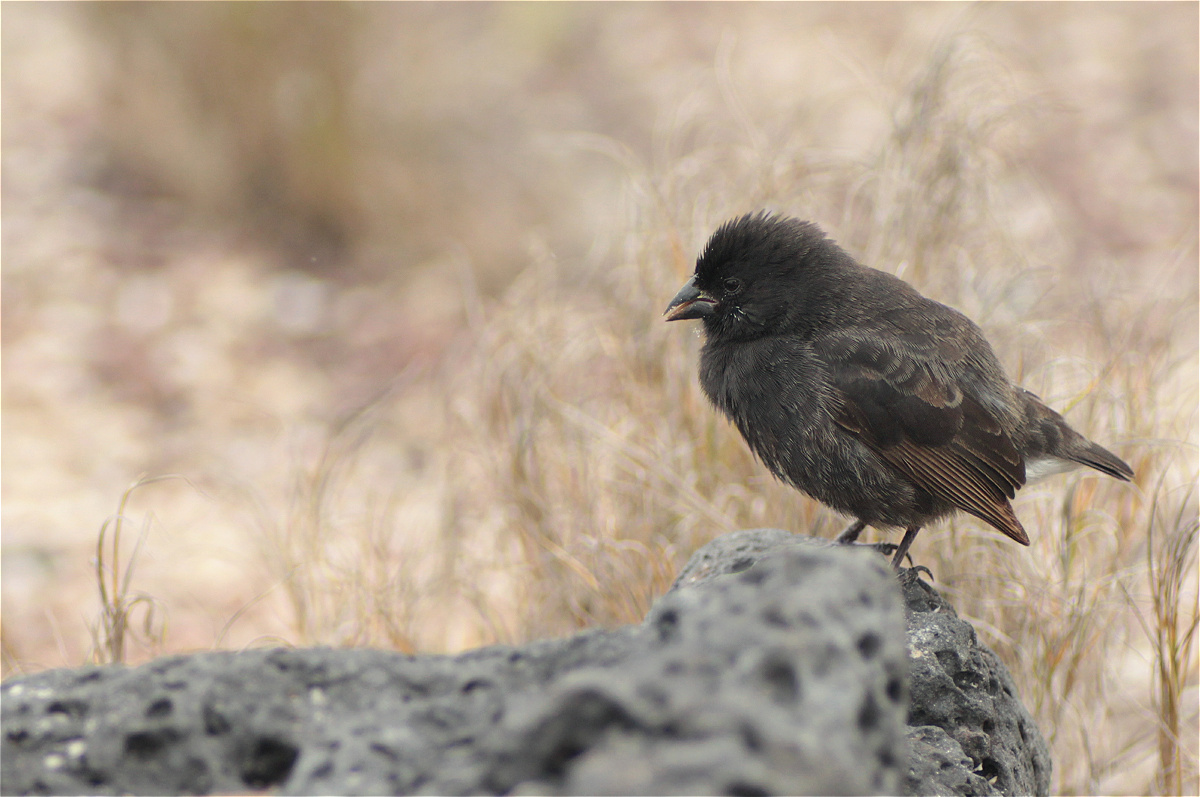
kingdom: Animalia
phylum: Chordata
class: Aves
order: Passeriformes
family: Thraupidae
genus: Geospiza
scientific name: Geospiza fuliginosa
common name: Small ground finch
